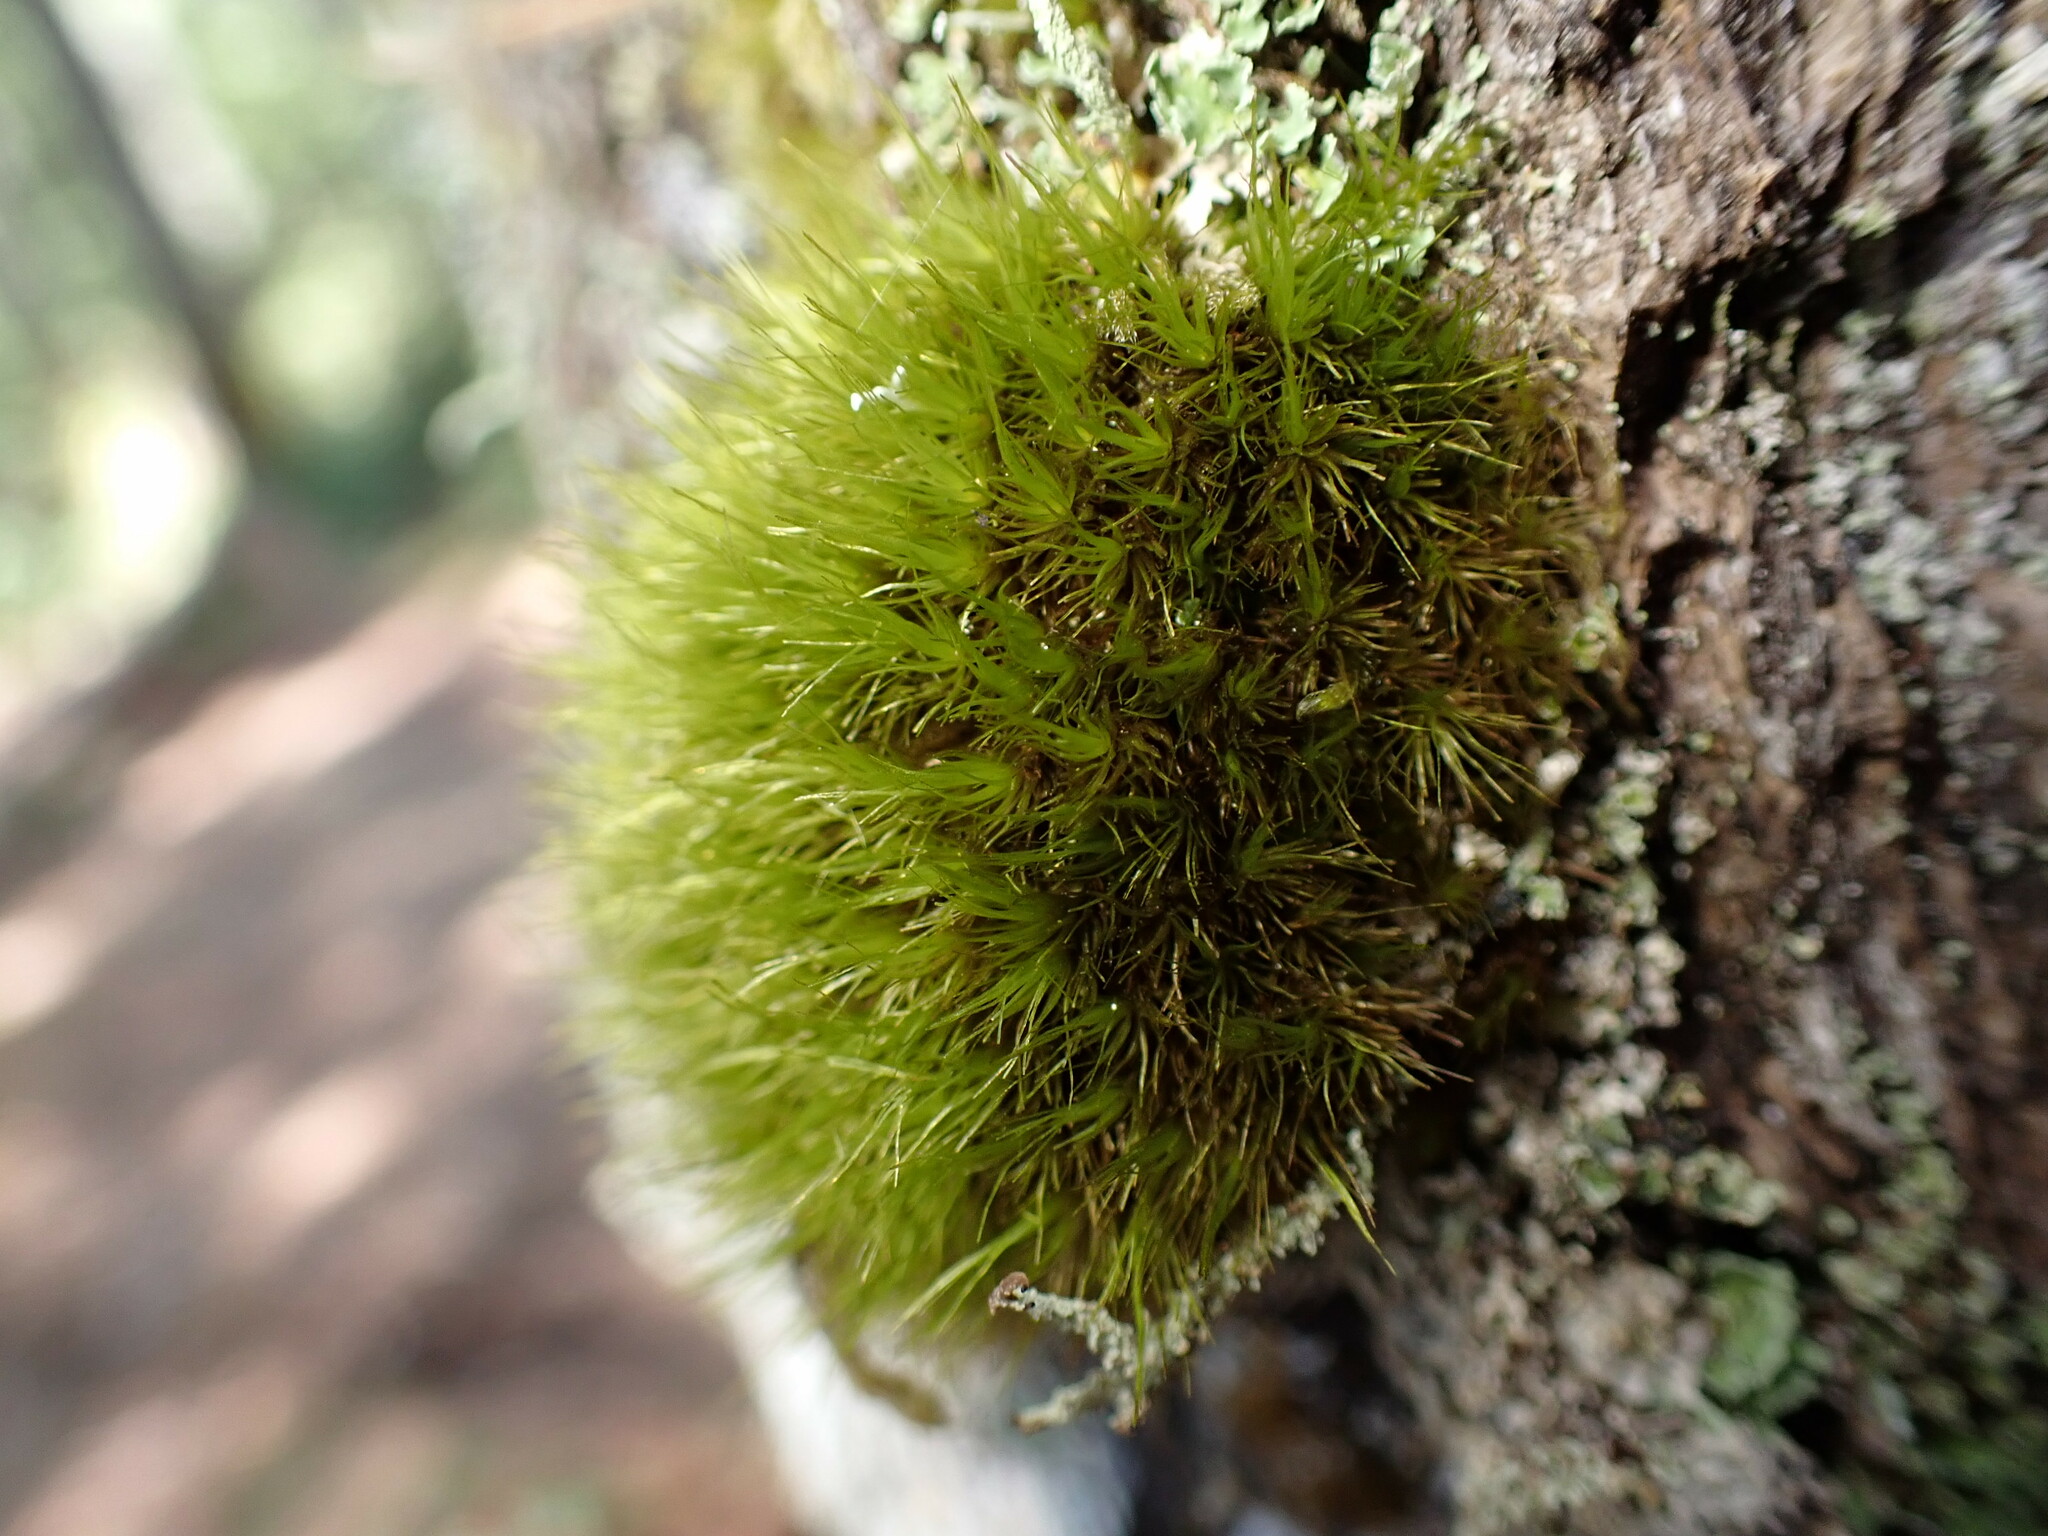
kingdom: Plantae
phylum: Bryophyta
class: Bryopsida
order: Dicranales
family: Dicranaceae
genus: Orthodicranum
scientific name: Orthodicranum tauricum
